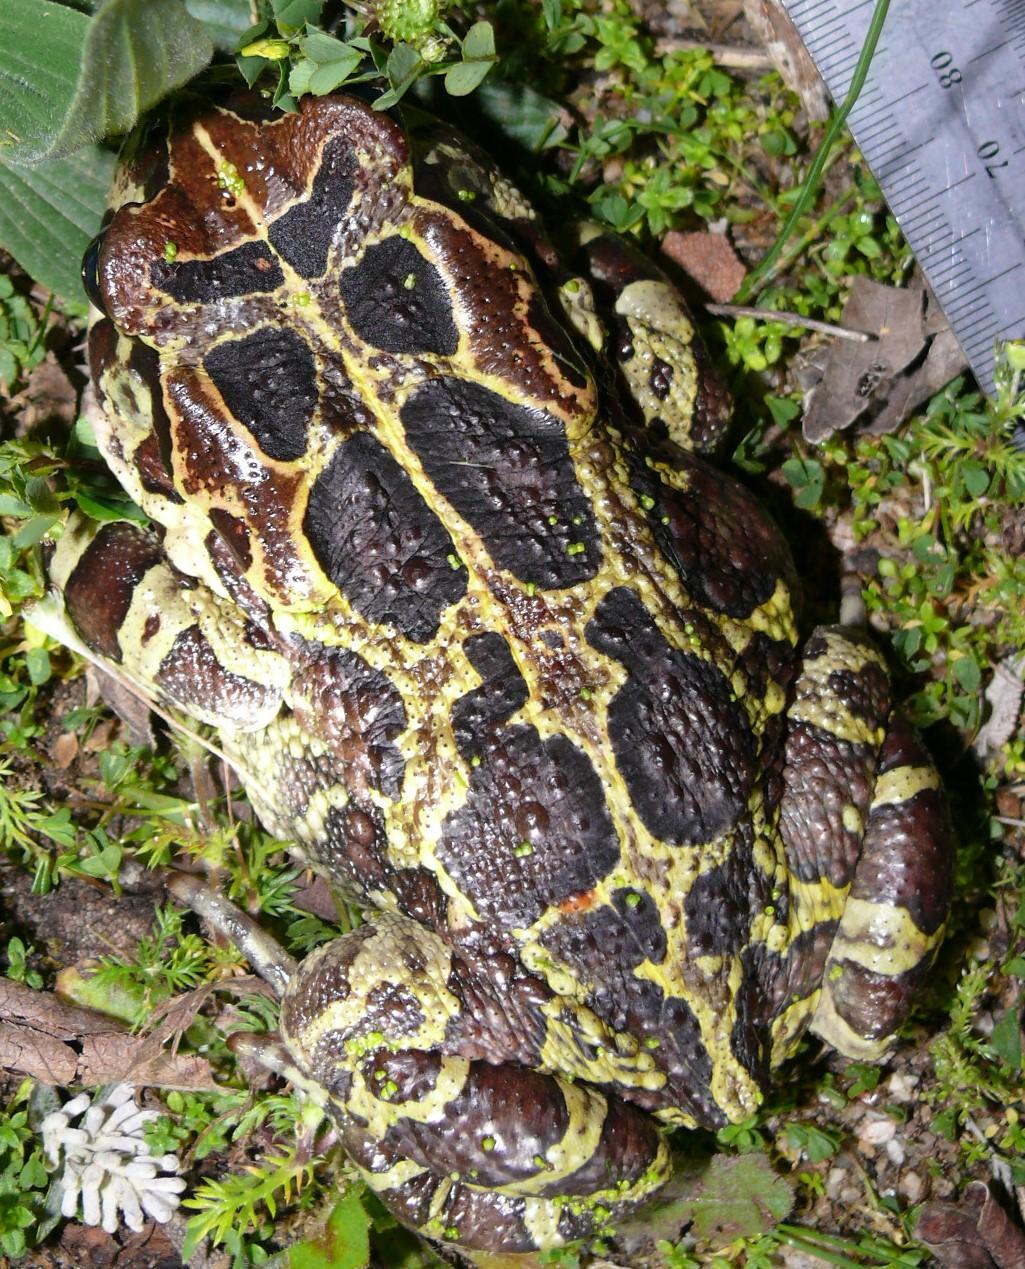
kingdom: Animalia
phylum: Chordata
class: Amphibia
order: Anura
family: Bufonidae
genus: Sclerophrys
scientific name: Sclerophrys pantherina
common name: Panther toad
